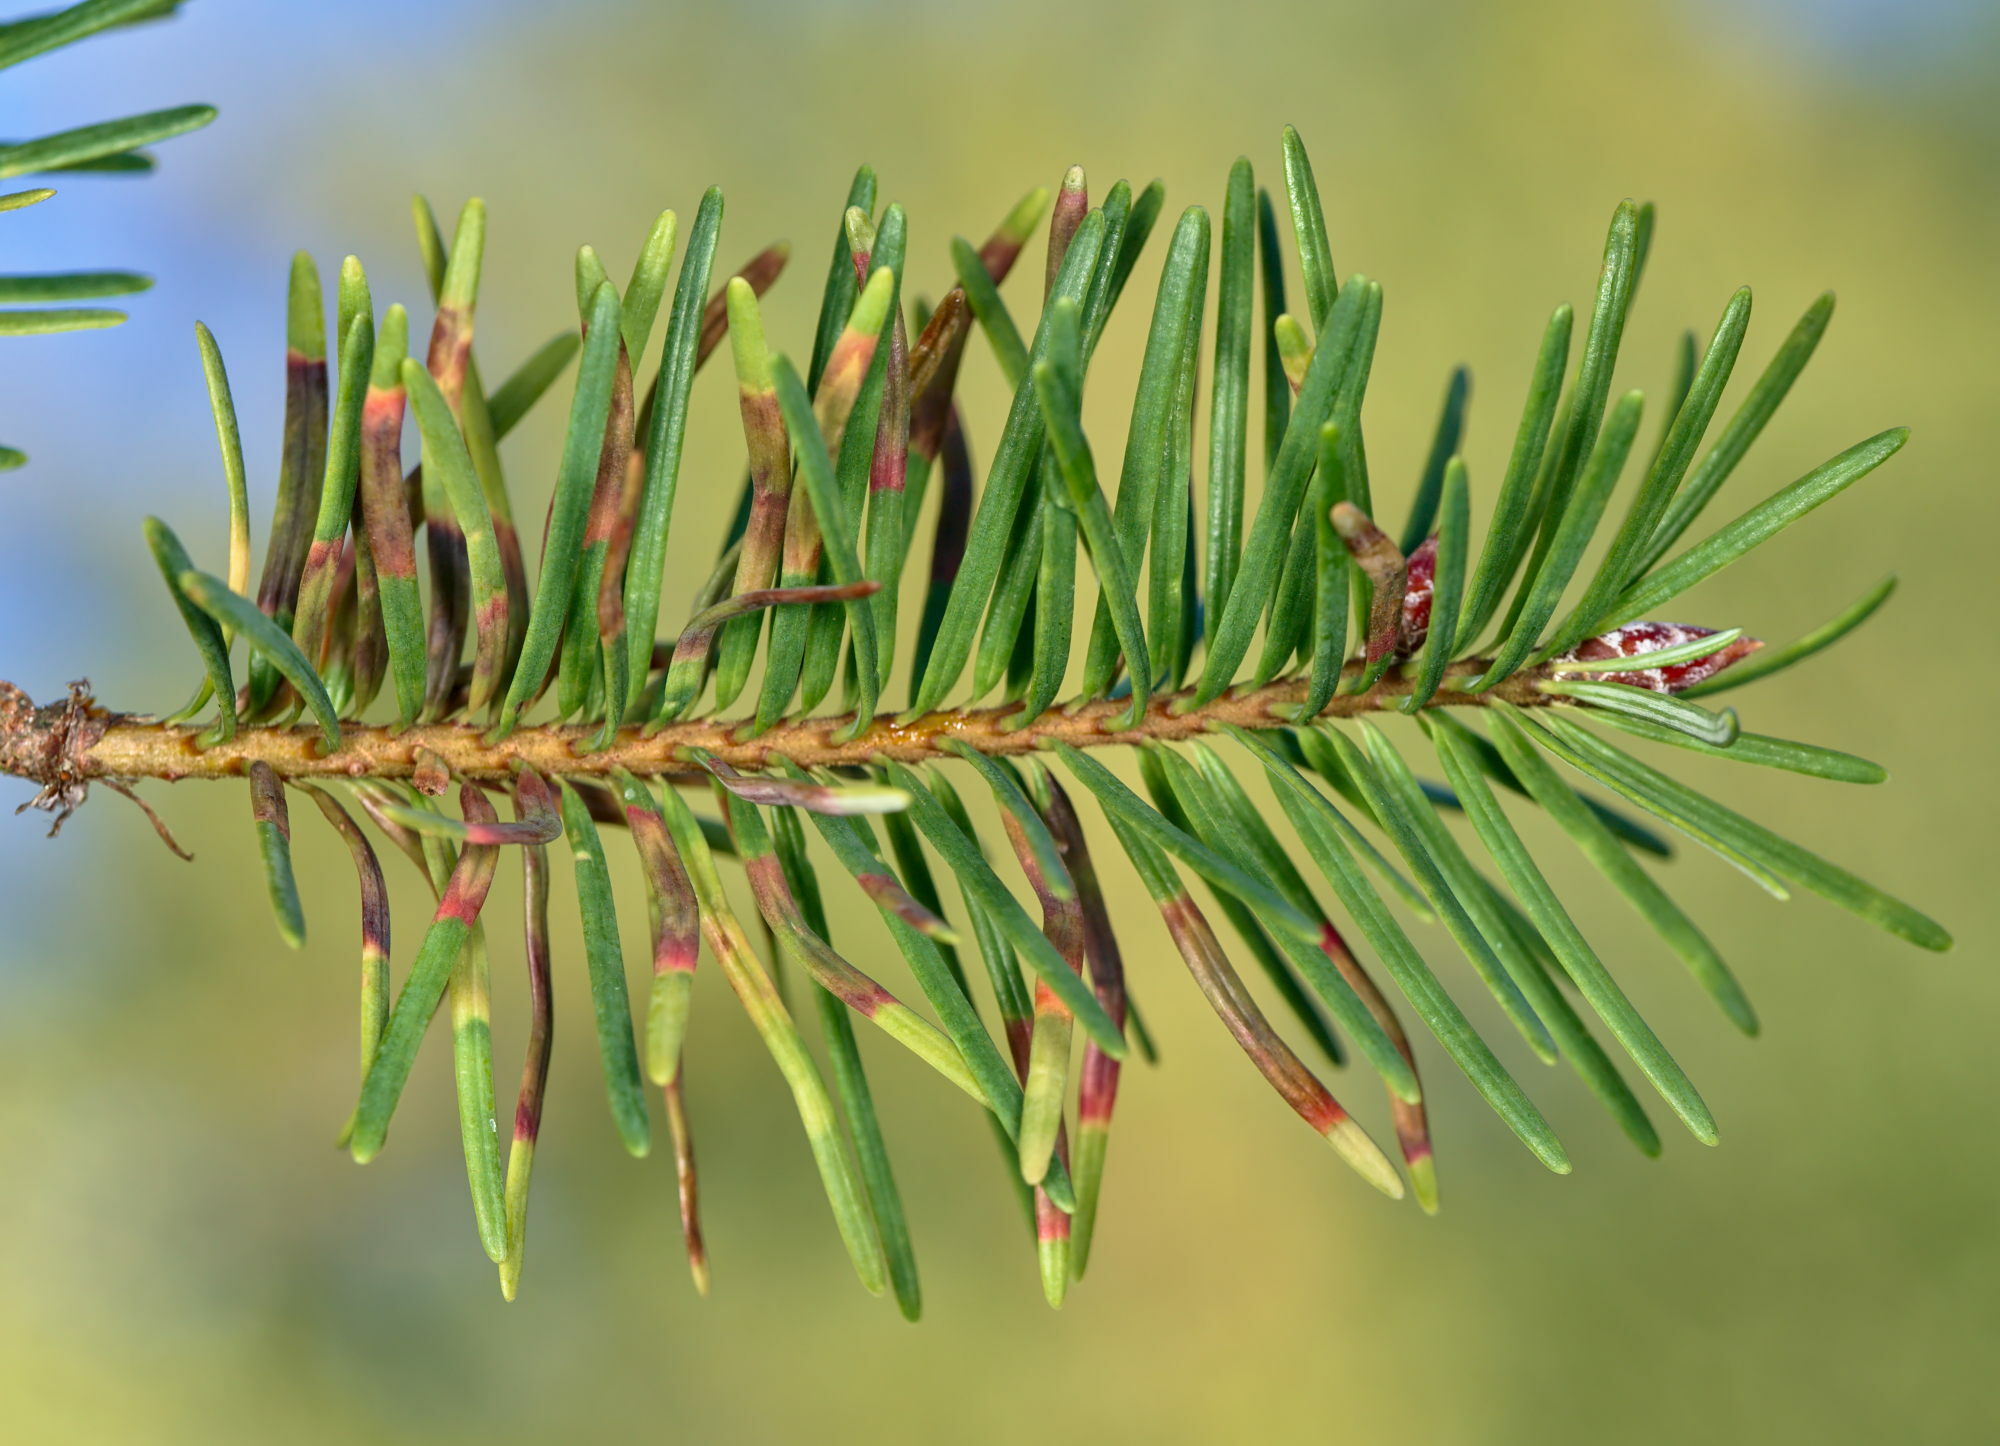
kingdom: Animalia
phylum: Arthropoda
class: Insecta
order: Diptera
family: Cecidomyiidae
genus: Contarinia
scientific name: Contarinia pseudotsugae
